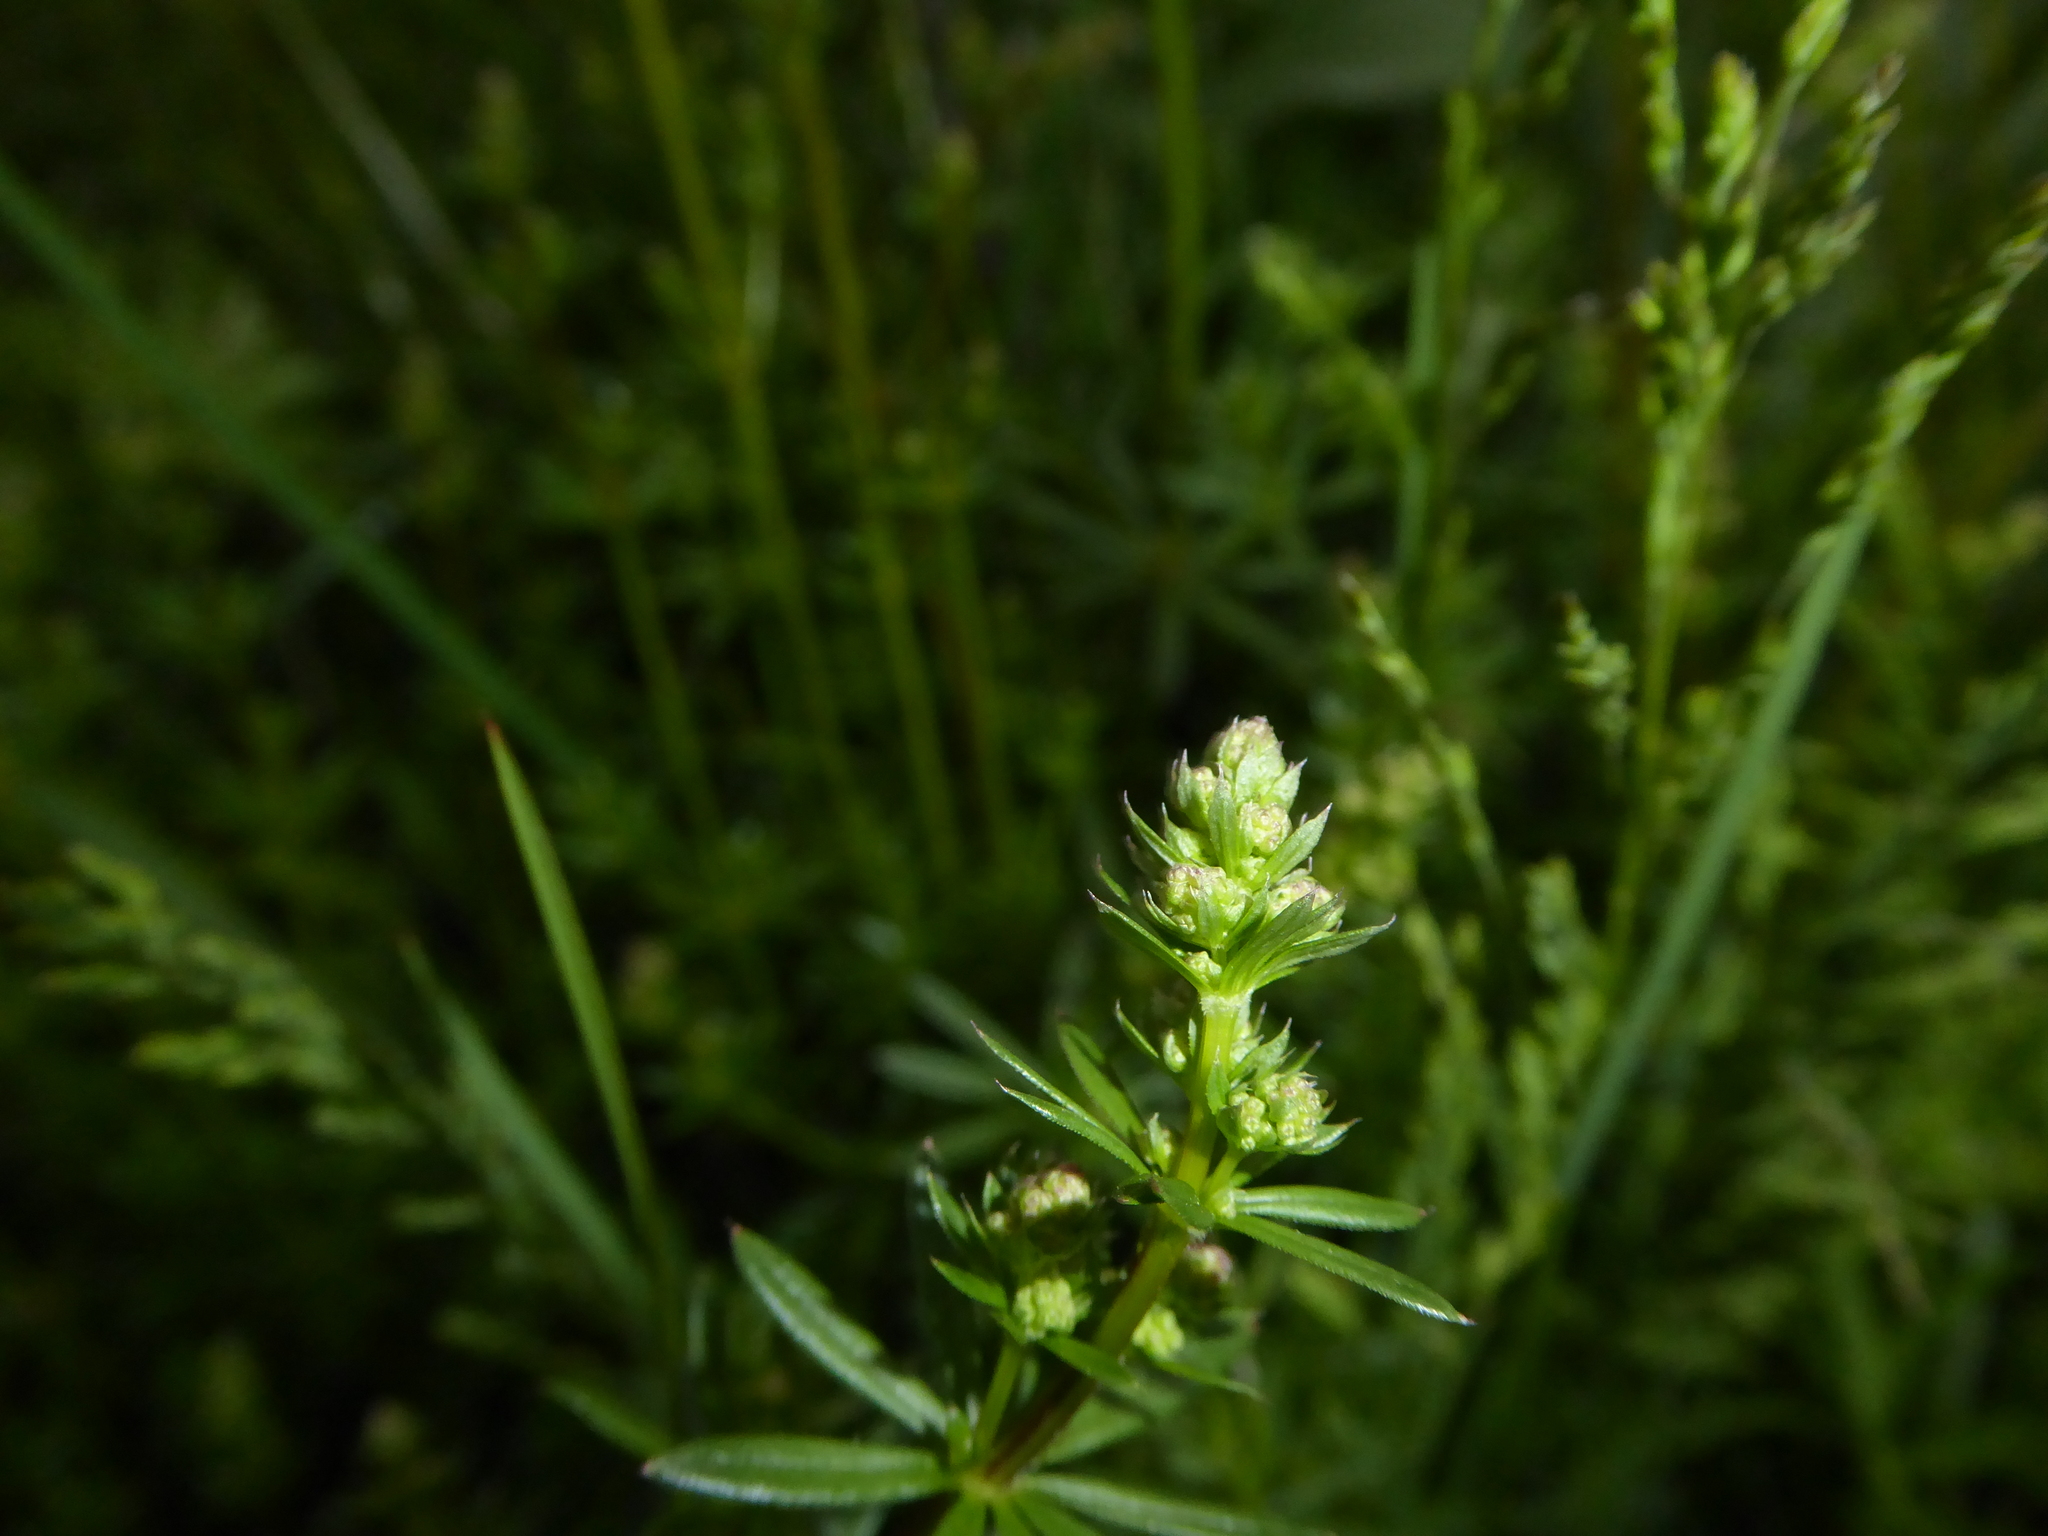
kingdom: Plantae
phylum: Tracheophyta
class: Magnoliopsida
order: Gentianales
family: Rubiaceae
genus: Sherardia
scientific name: Sherardia arvensis
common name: Field madder
